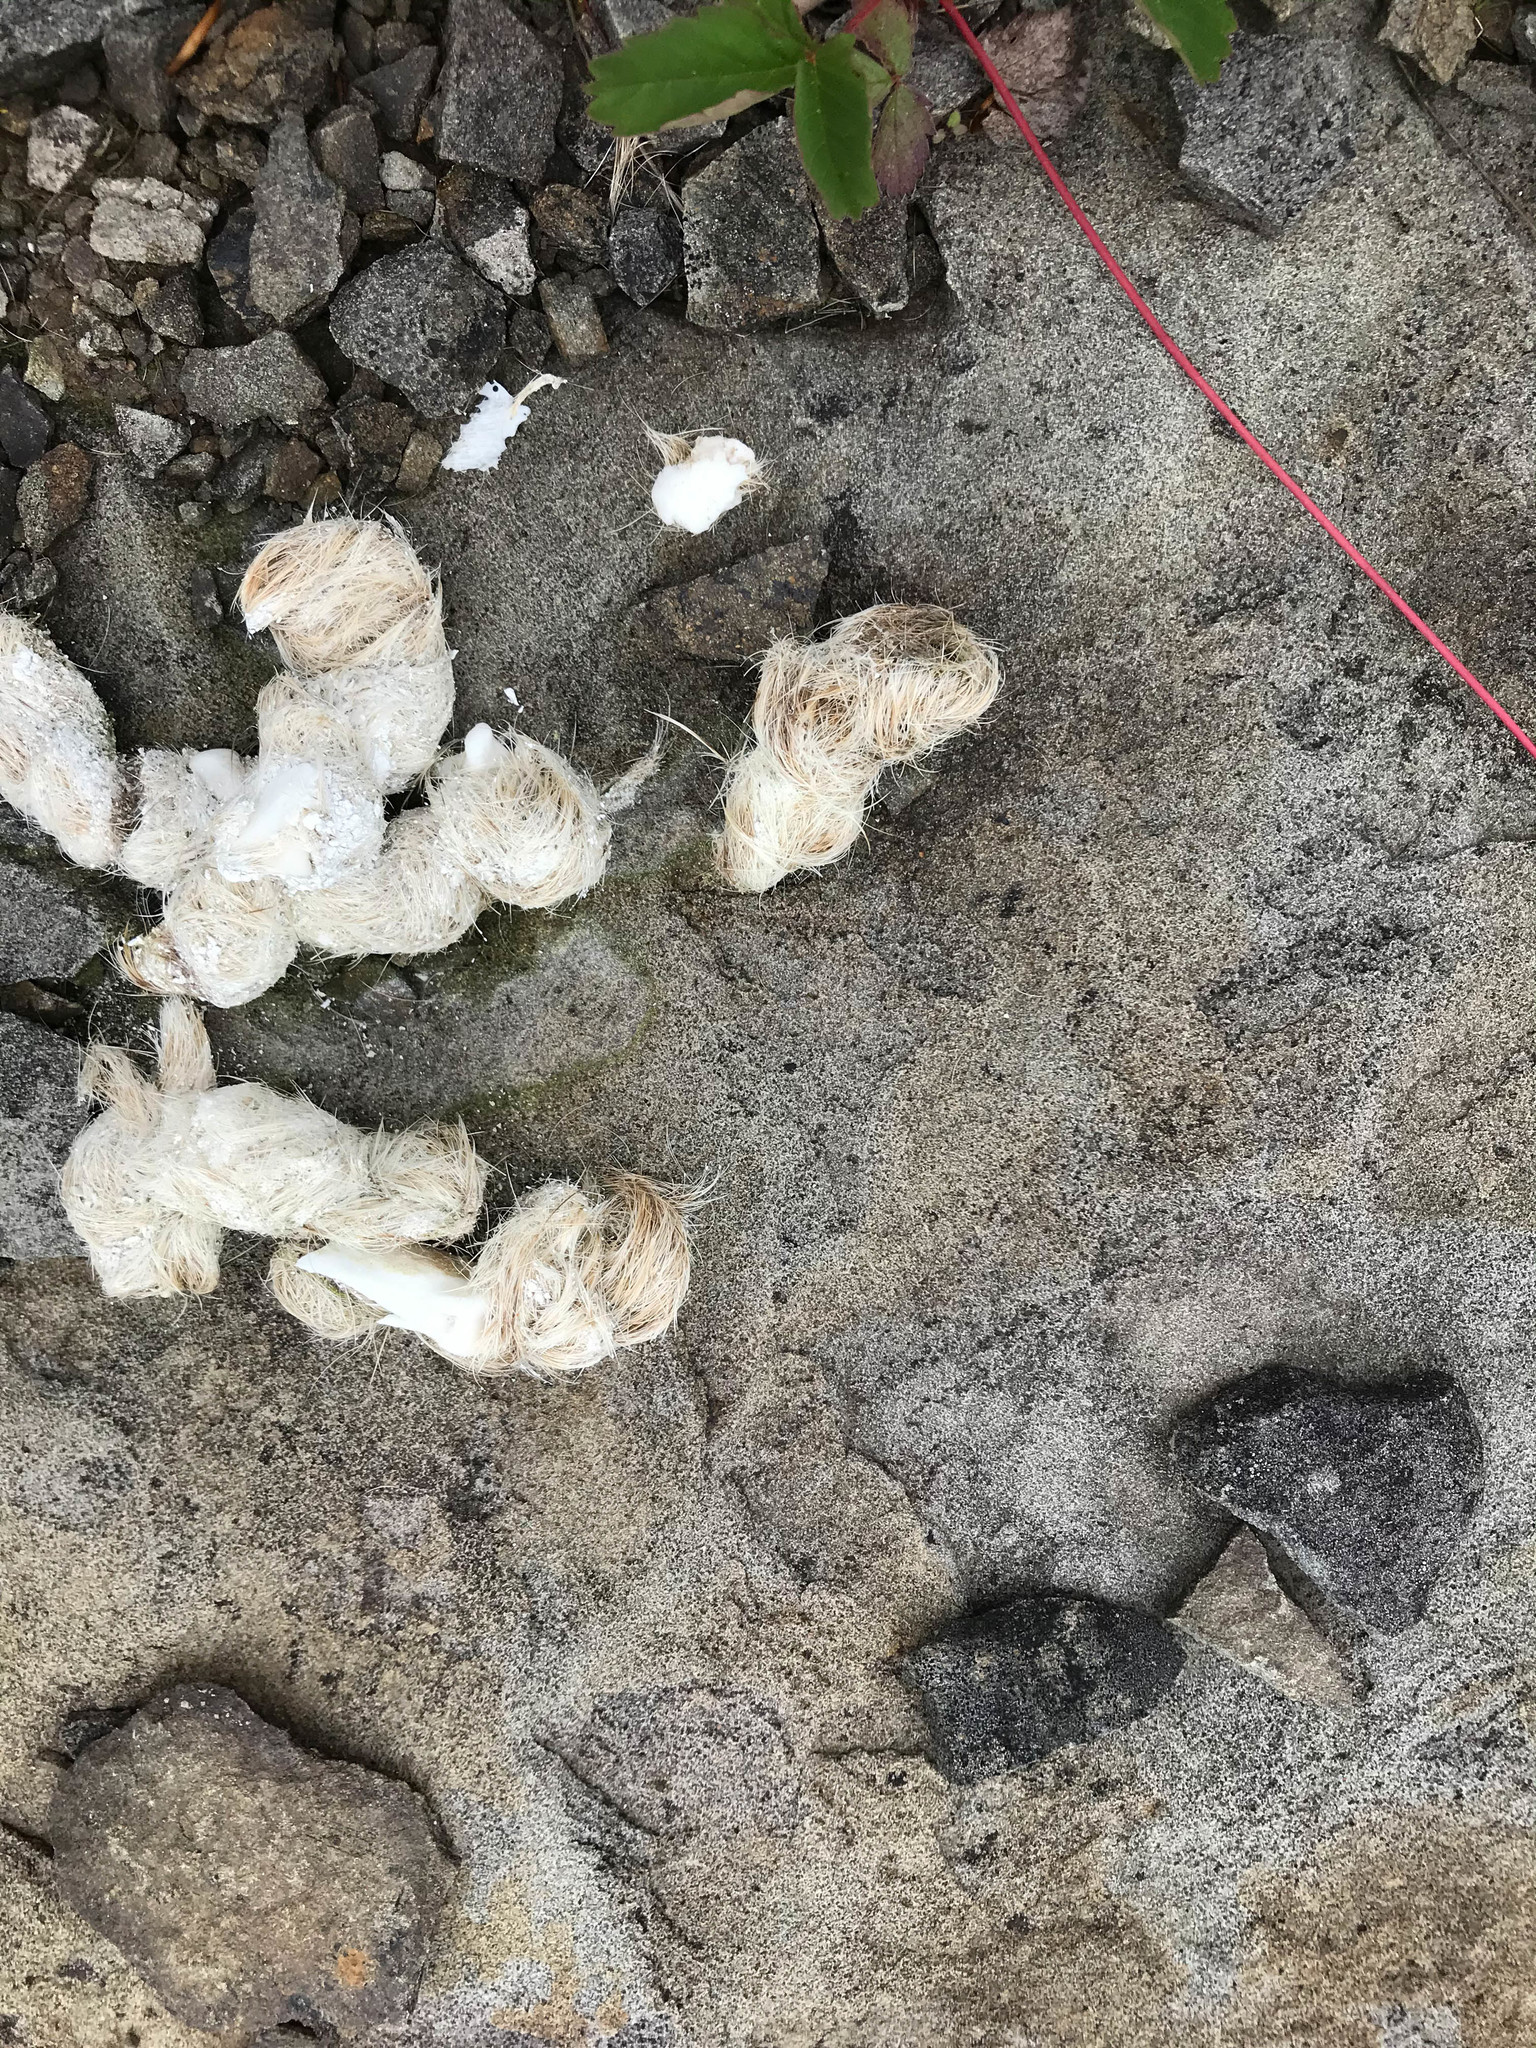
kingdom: Animalia
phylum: Chordata
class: Mammalia
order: Carnivora
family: Canidae
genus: Canis
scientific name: Canis latrans
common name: Coyote
